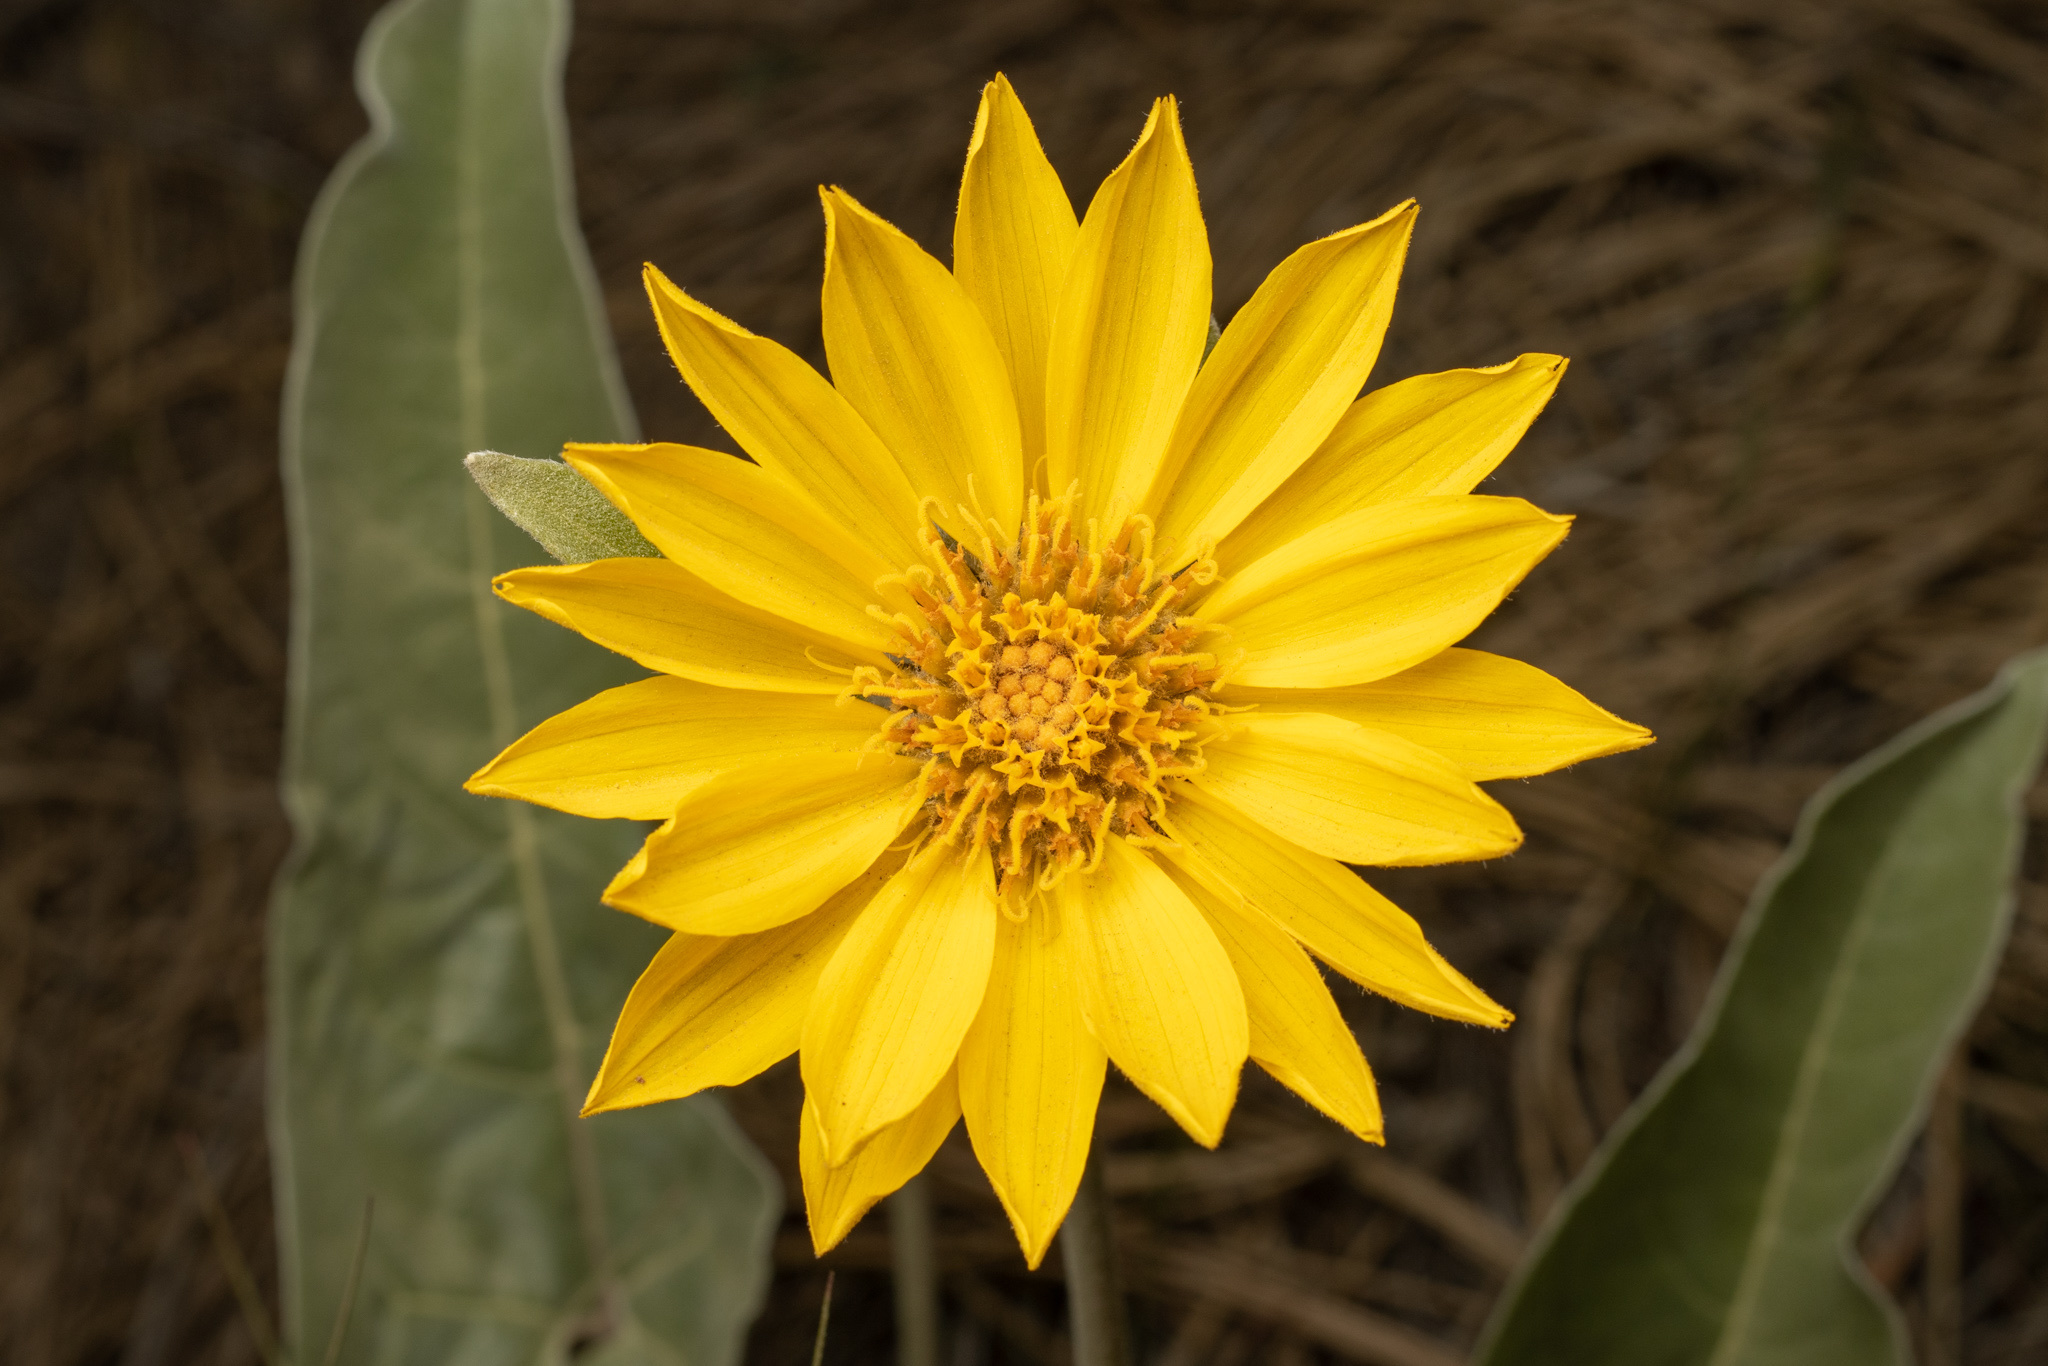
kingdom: Plantae
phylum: Tracheophyta
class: Magnoliopsida
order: Asterales
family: Asteraceae
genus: Wyethia
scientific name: Wyethia sagittata
